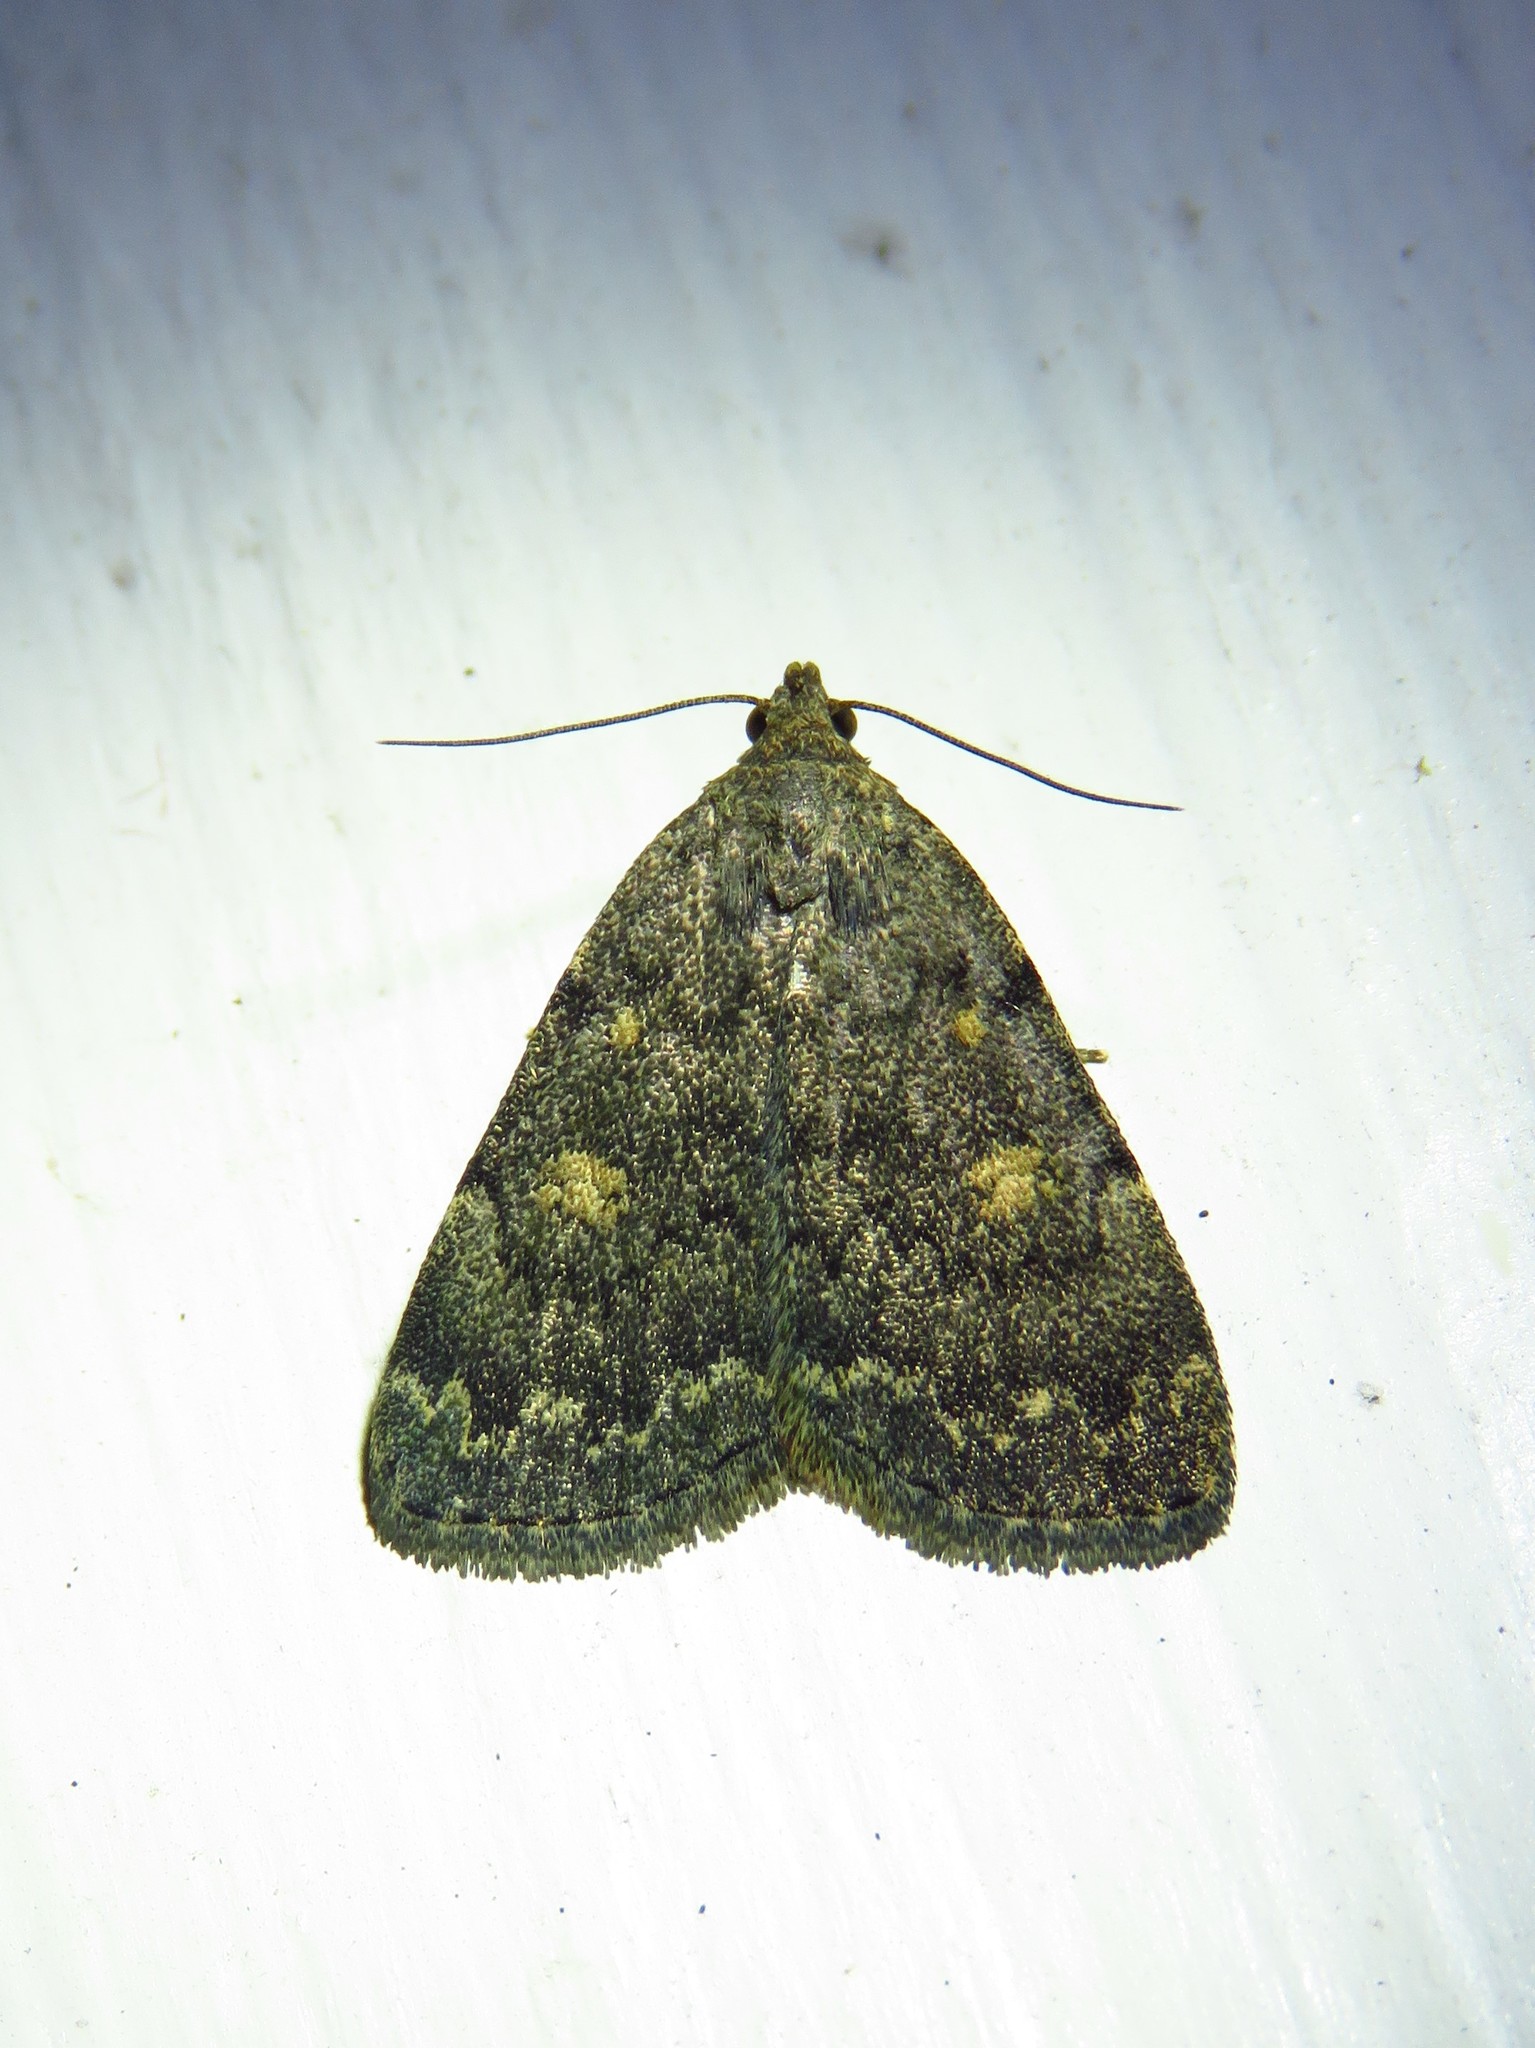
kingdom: Animalia
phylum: Arthropoda
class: Insecta
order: Lepidoptera
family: Erebidae
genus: Idia
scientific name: Idia aemula
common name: Common idia moth
